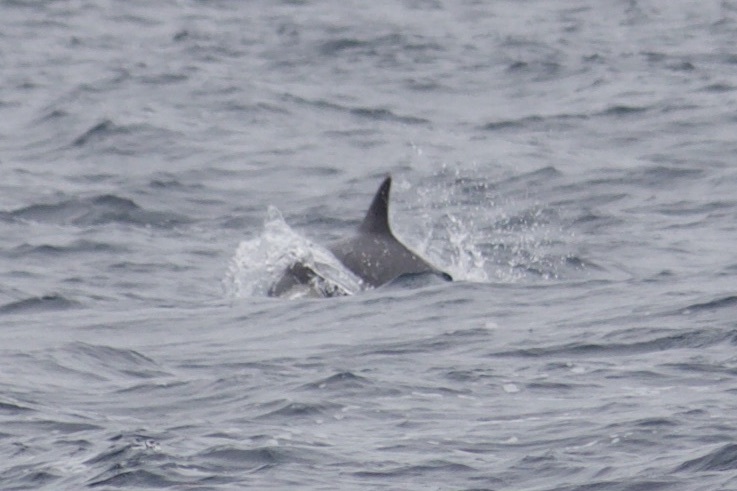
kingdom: Animalia
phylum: Chordata
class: Mammalia
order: Cetacea
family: Delphinidae
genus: Delphinus
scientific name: Delphinus delphis
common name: Common dolphin
